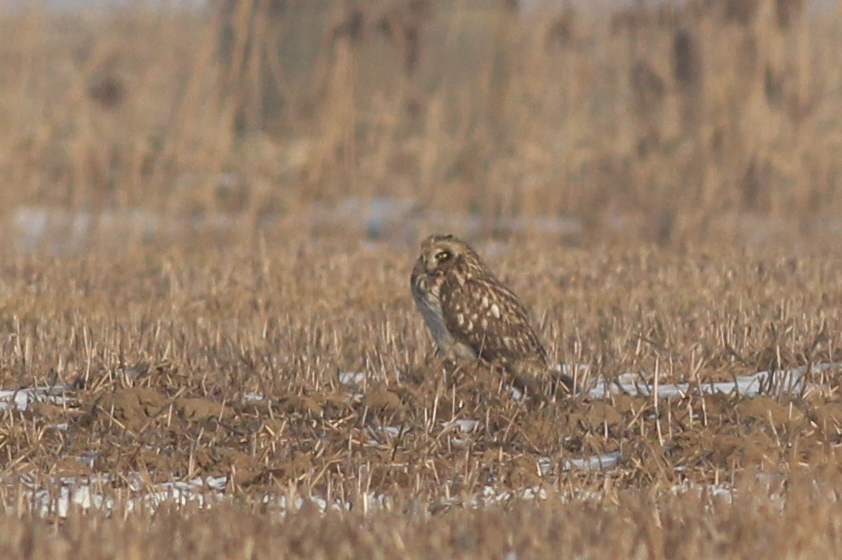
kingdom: Animalia
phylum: Chordata
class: Aves
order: Strigiformes
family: Strigidae
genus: Asio
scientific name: Asio flammeus
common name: Short-eared owl
